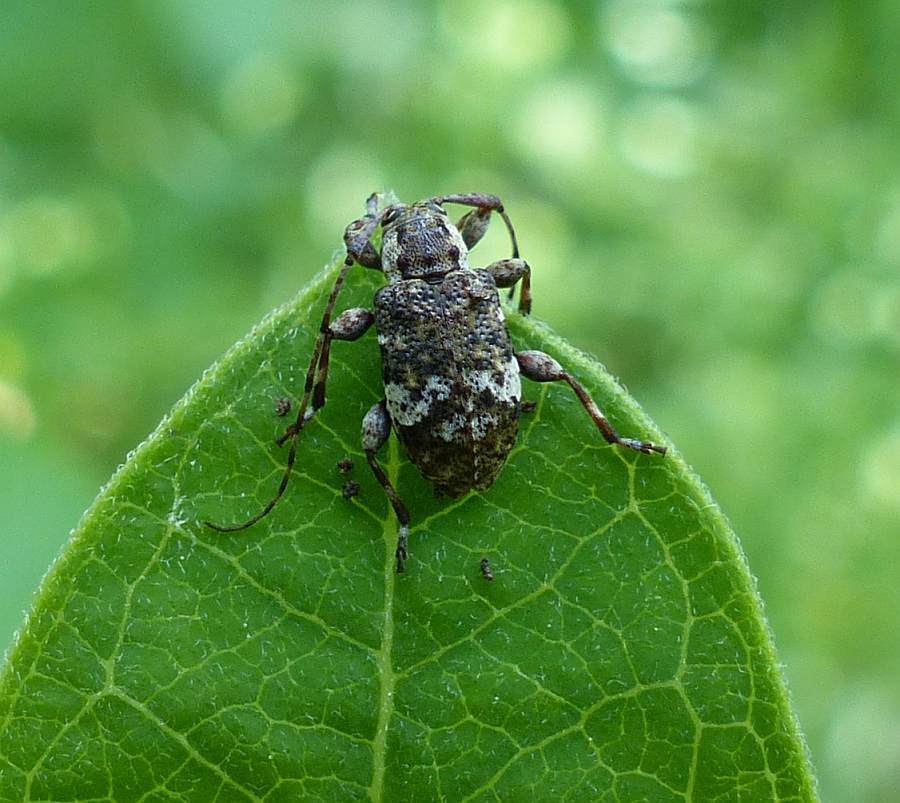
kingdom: Animalia
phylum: Arthropoda
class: Insecta
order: Coleoptera
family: Cerambycidae
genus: Astylopsis
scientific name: Astylopsis macula
